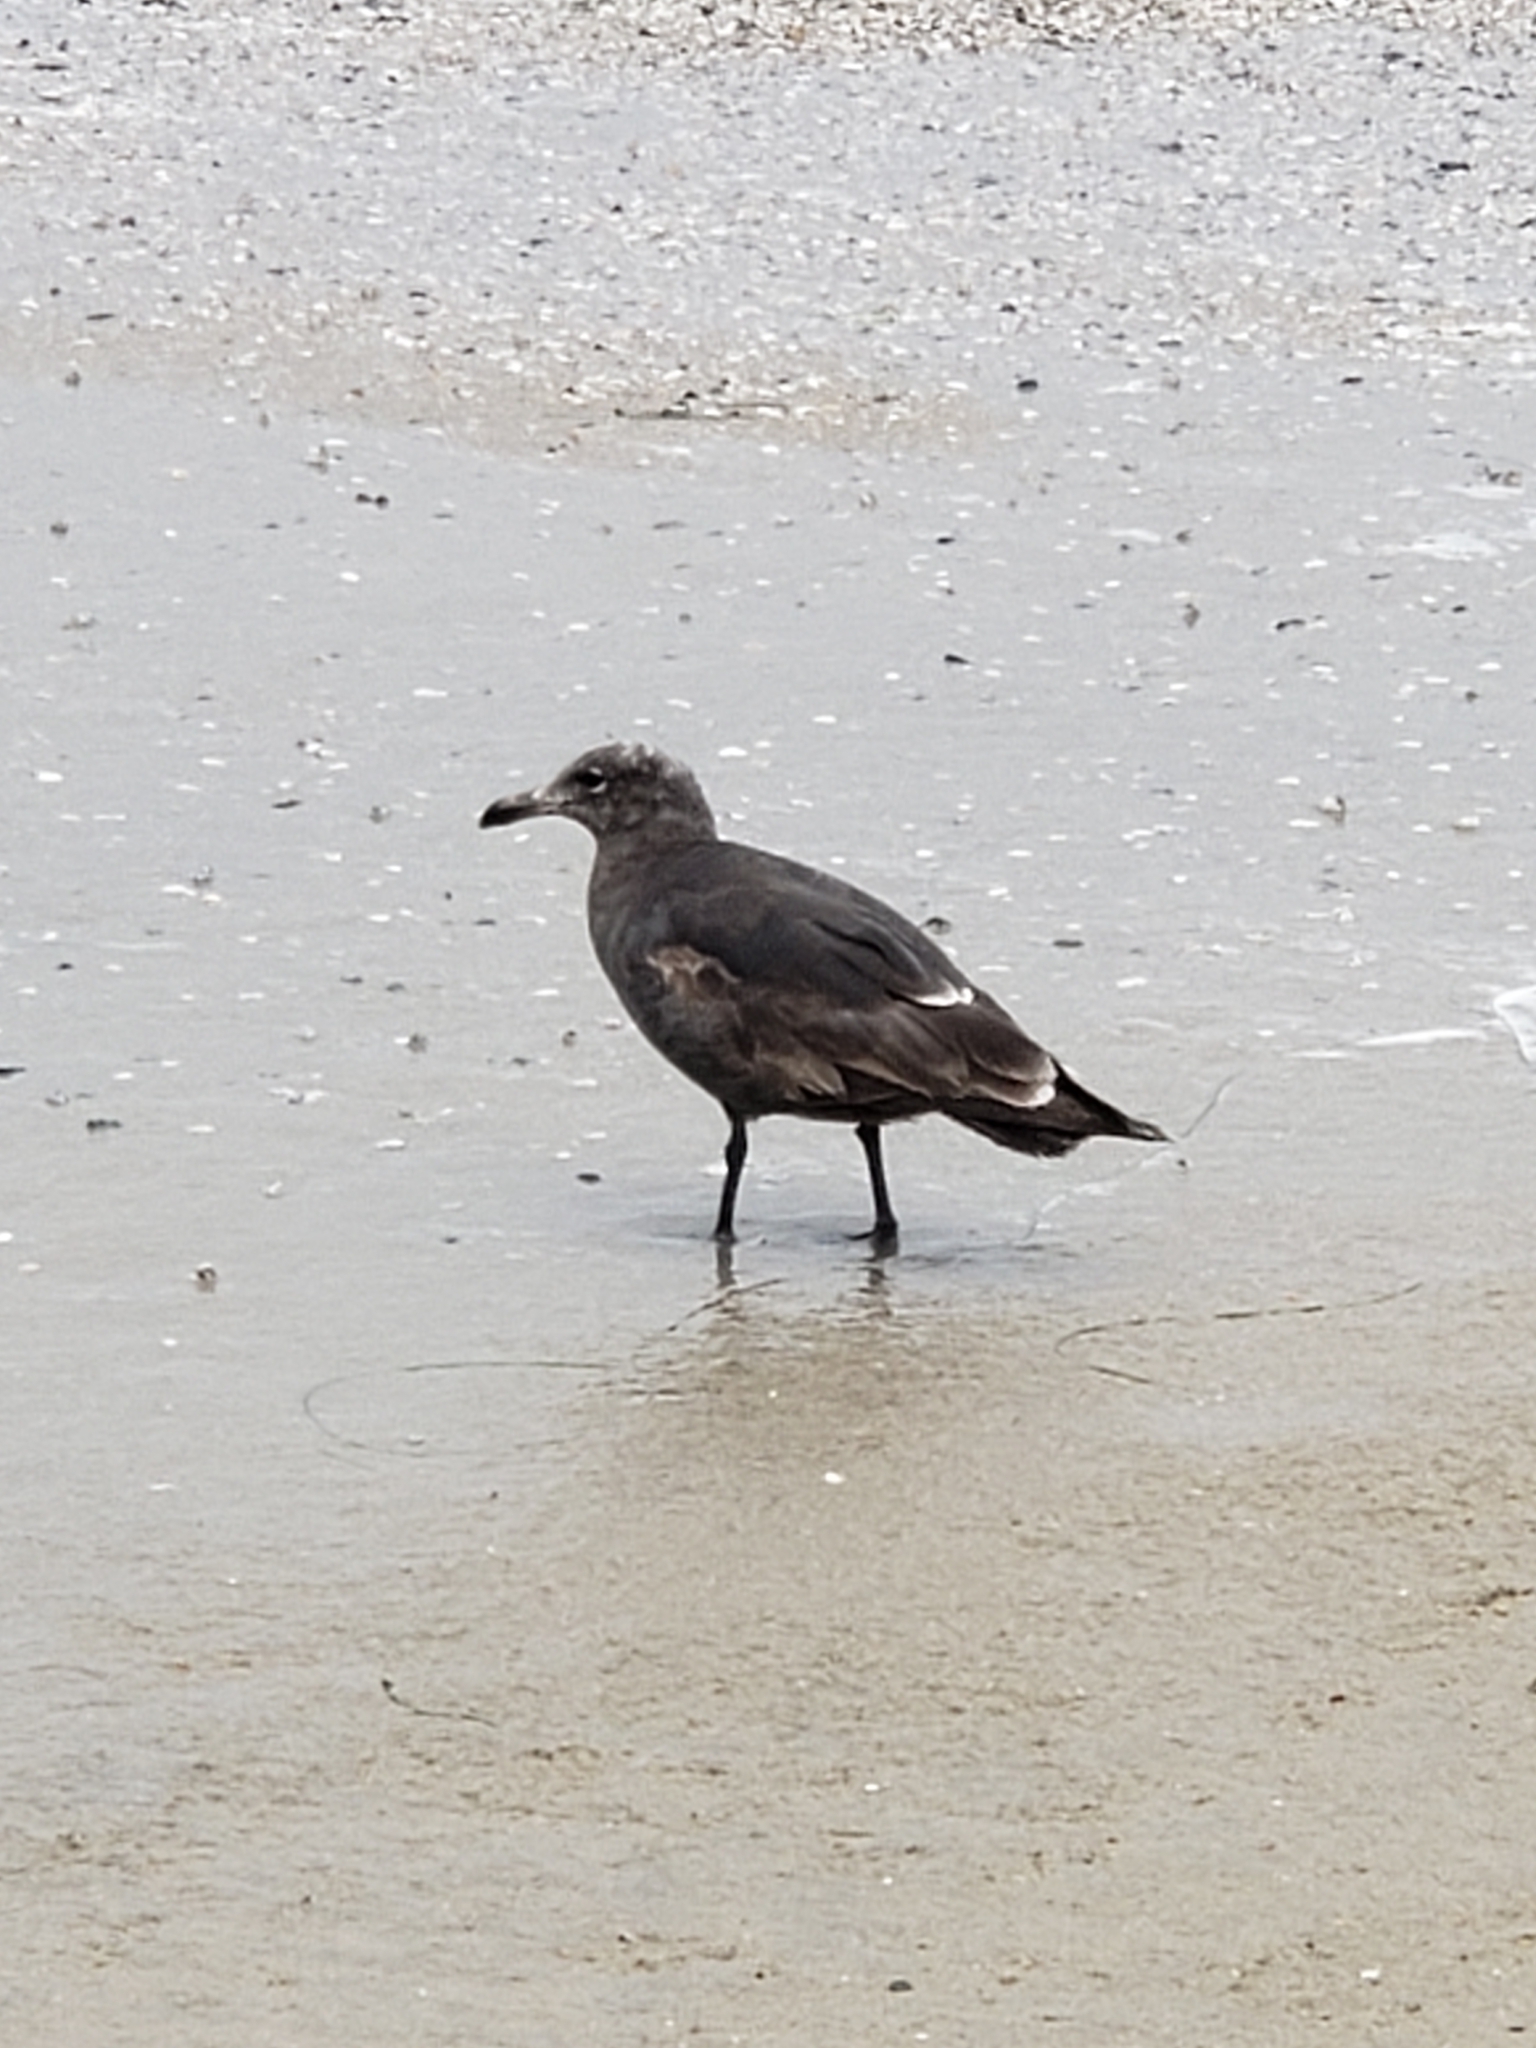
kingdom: Animalia
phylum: Chordata
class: Aves
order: Charadriiformes
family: Laridae
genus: Larus
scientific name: Larus heermanni
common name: Heermann's gull
